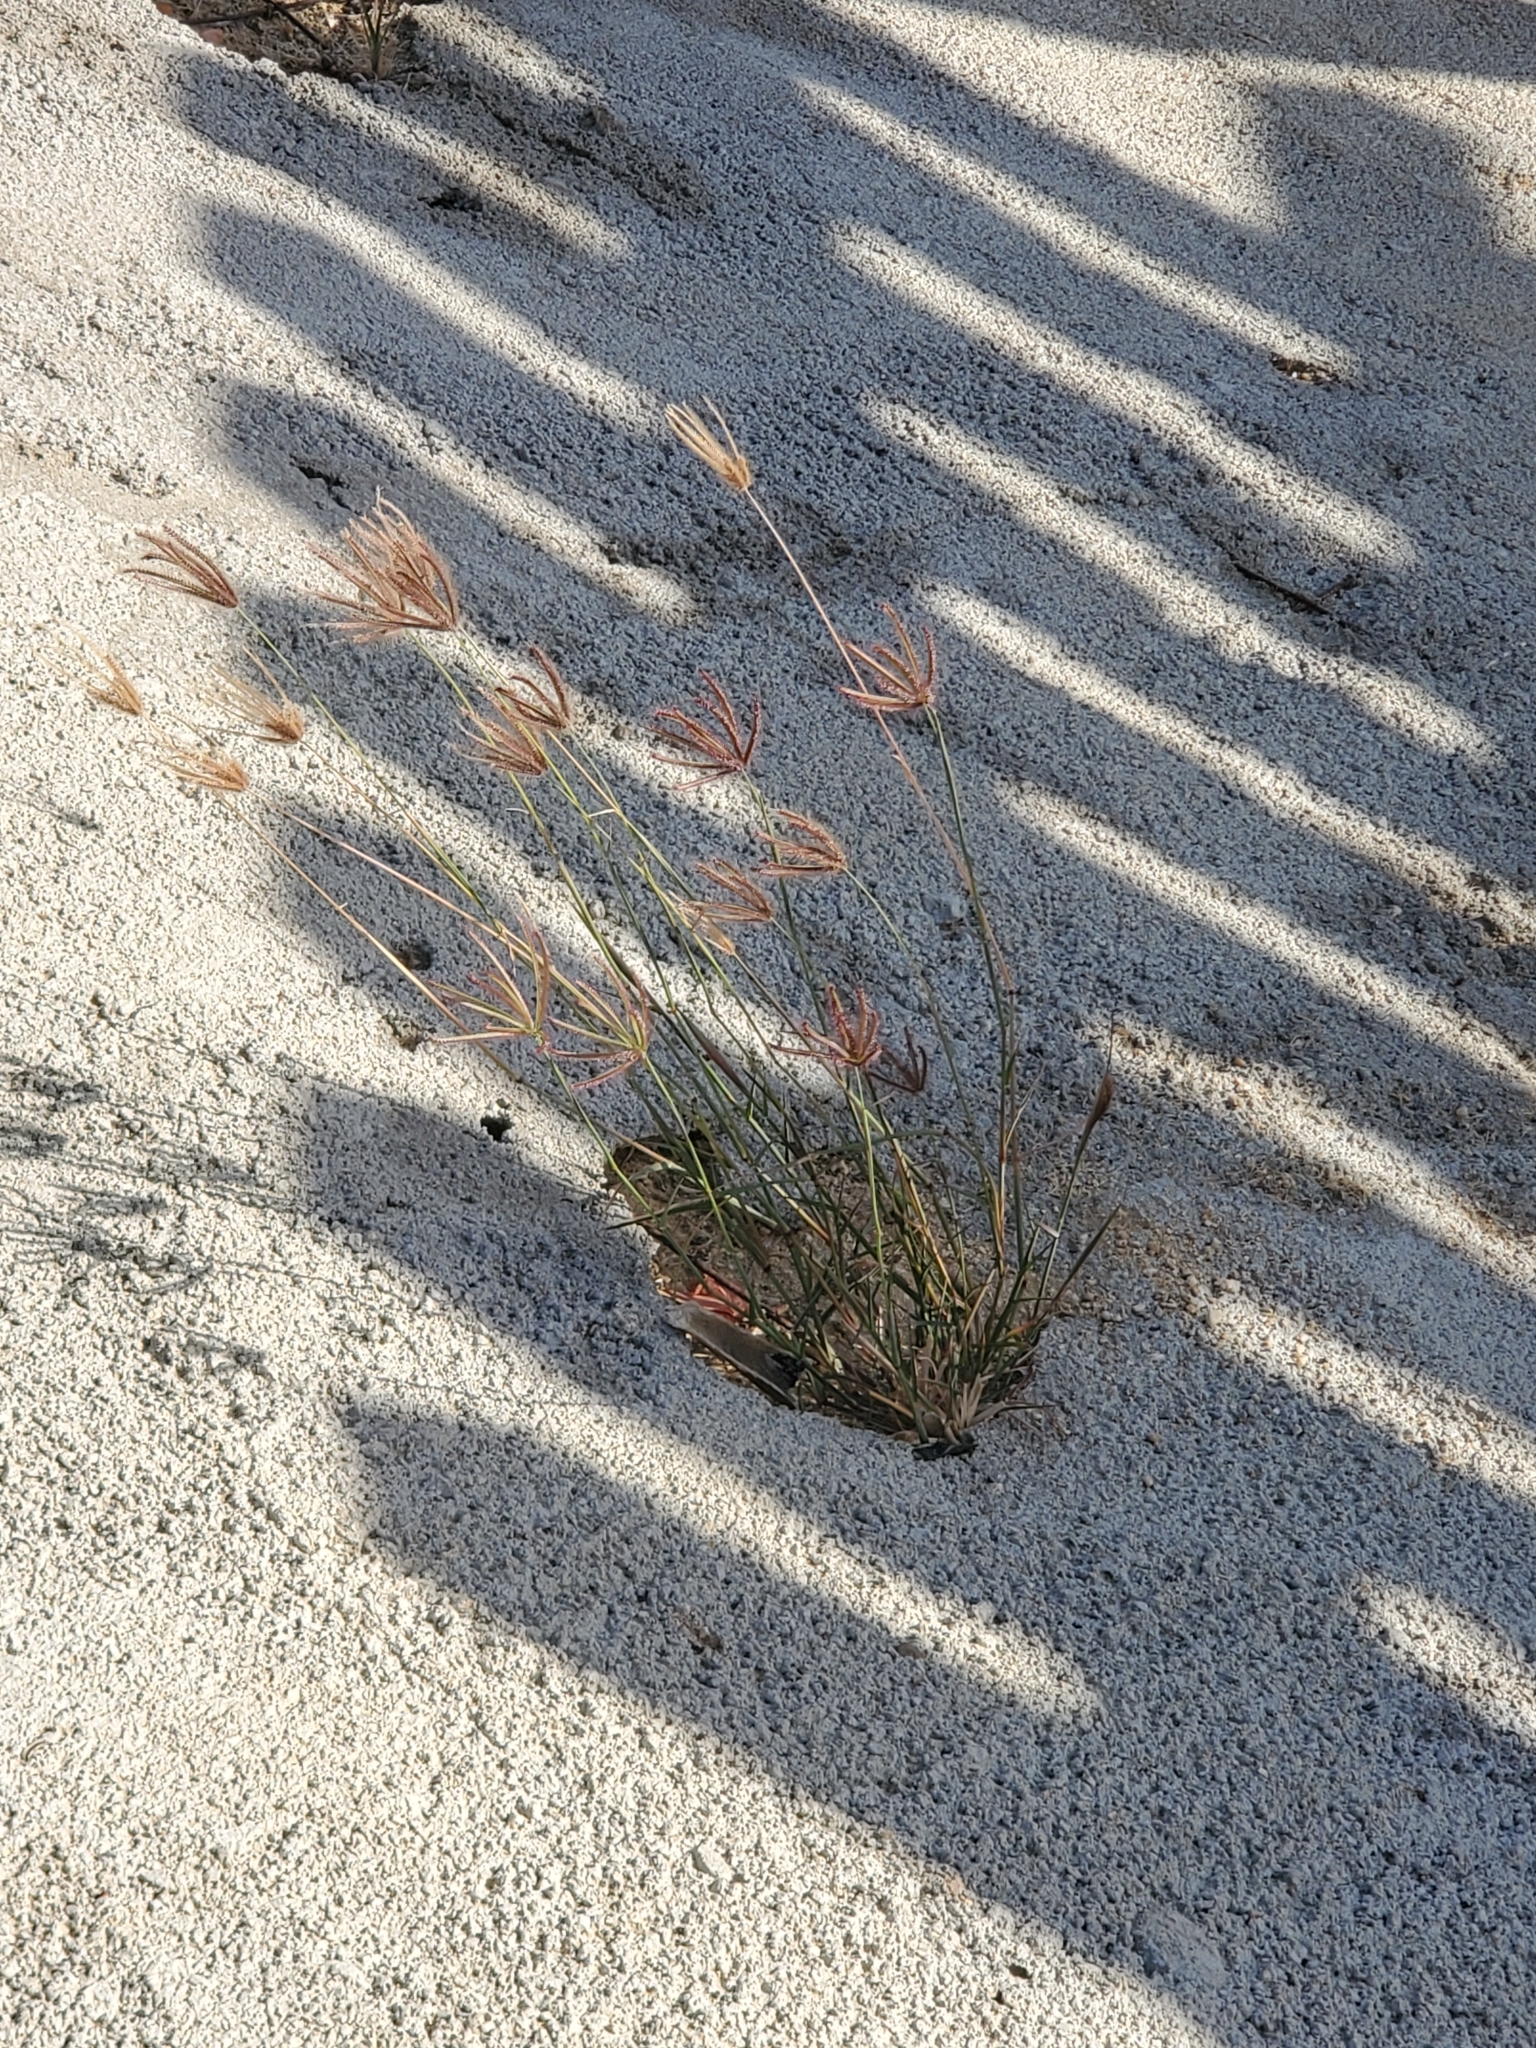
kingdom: Plantae
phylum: Tracheophyta
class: Liliopsida
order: Poales
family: Poaceae
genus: Chloris
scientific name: Chloris barbata
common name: Swollen fingergrass
